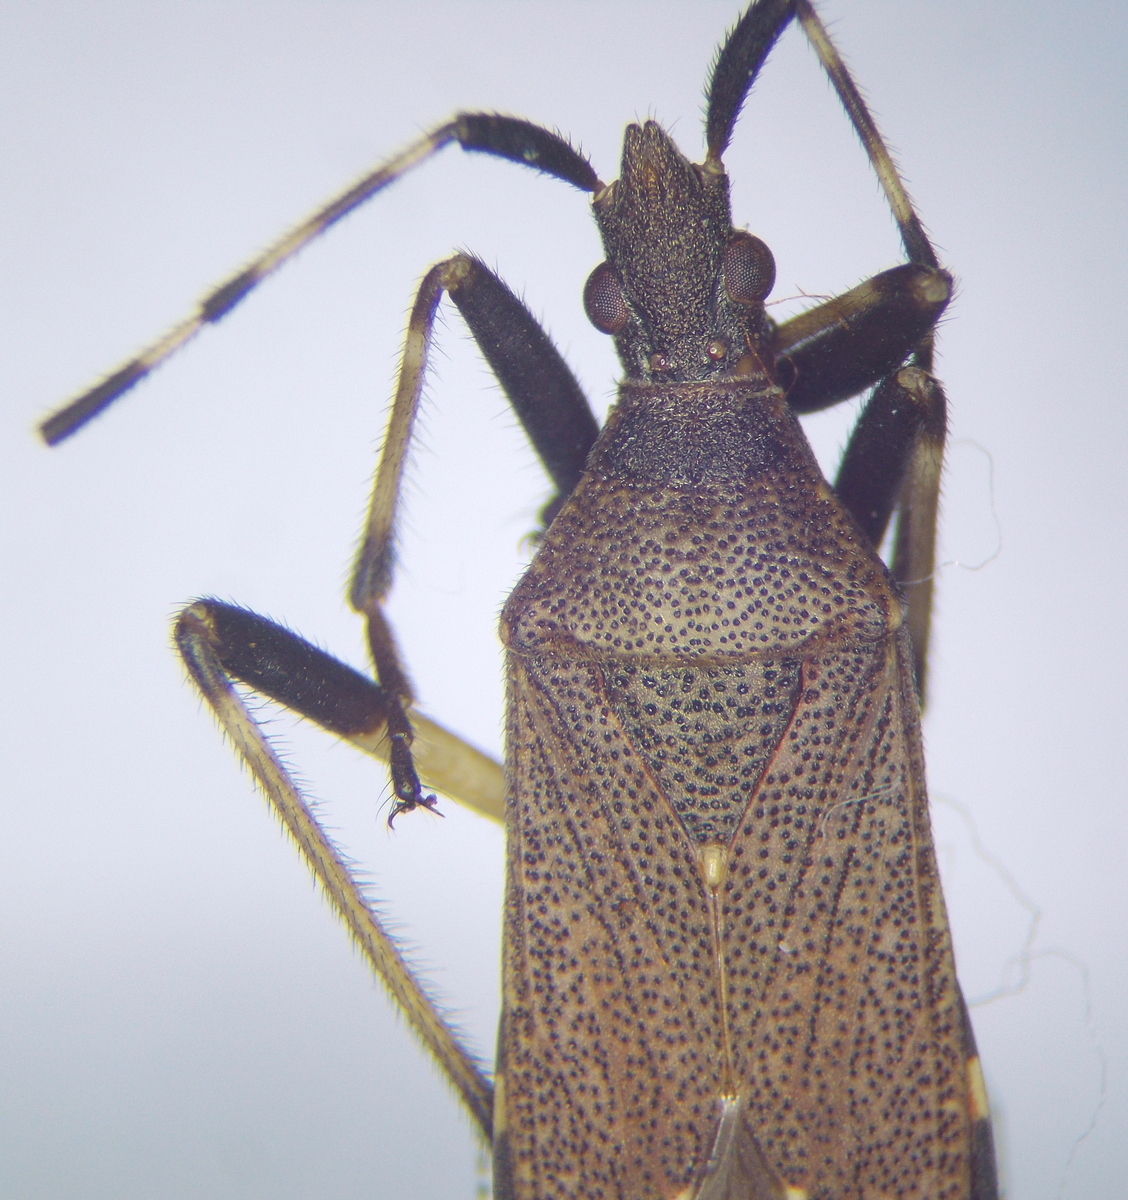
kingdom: Animalia
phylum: Arthropoda
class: Insecta
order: Hemiptera
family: Stenocephalidae
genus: Dicranocephalus
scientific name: Dicranocephalus agilis
